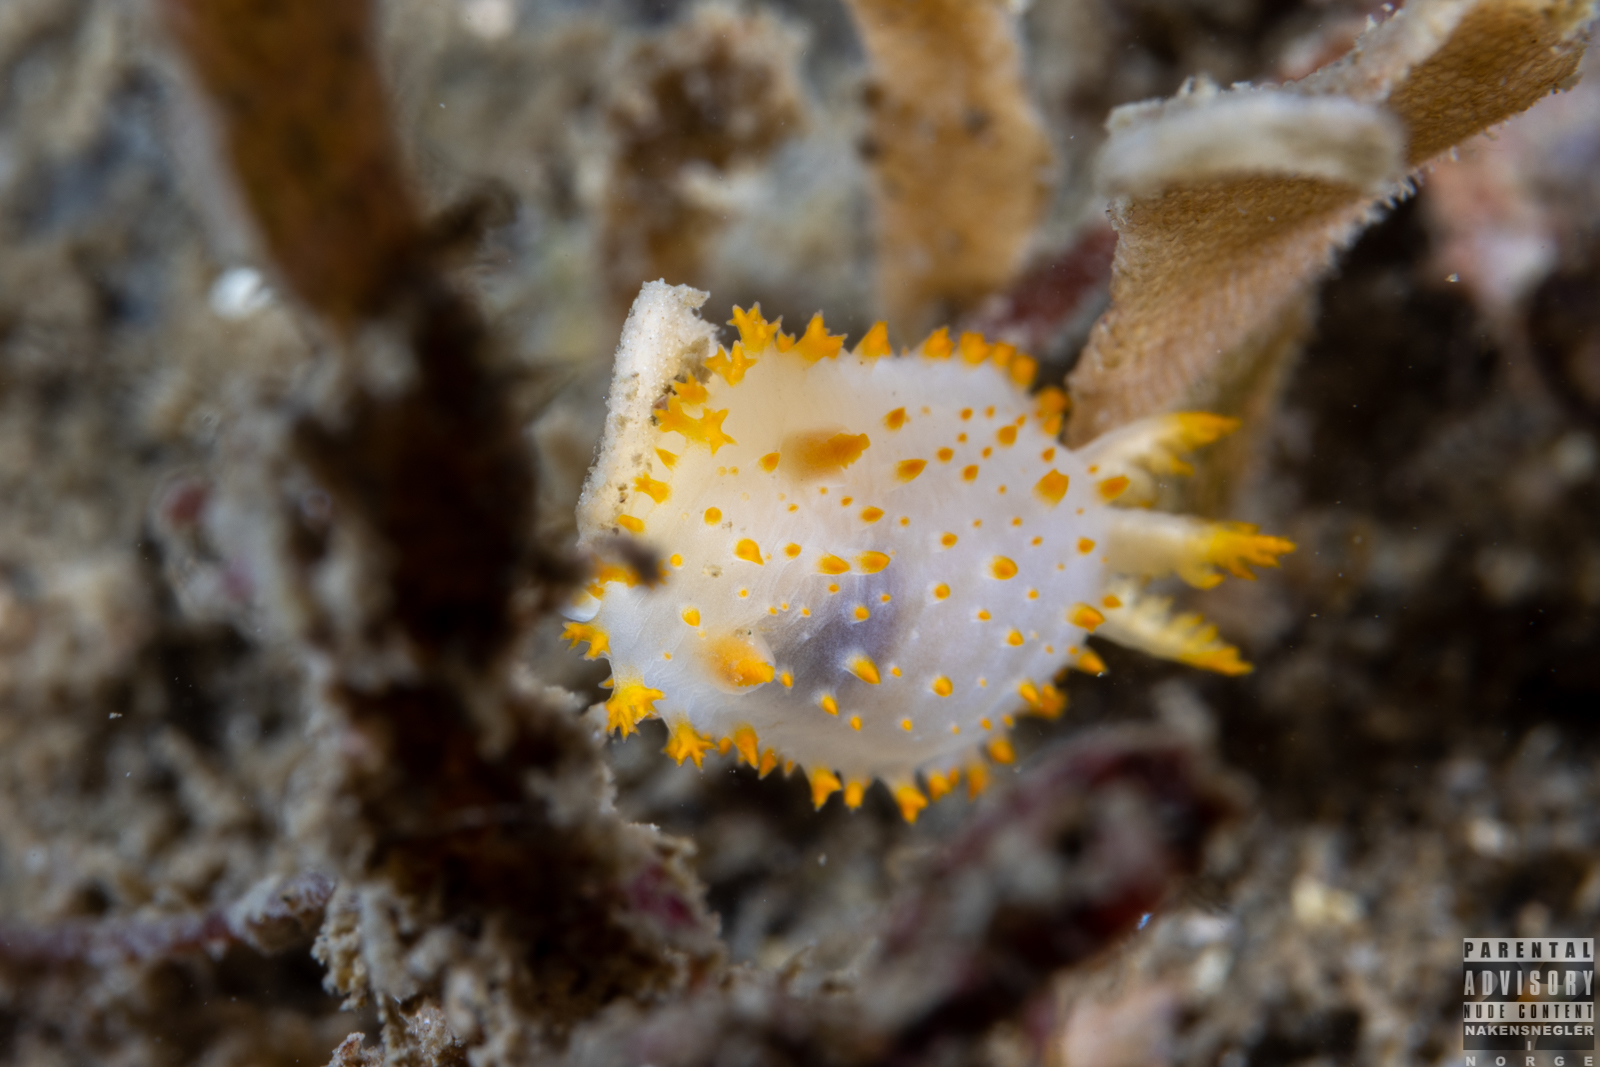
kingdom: Animalia
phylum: Mollusca
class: Gastropoda
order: Nudibranchia
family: Polyceridae
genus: Crimora
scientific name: Crimora papillata
